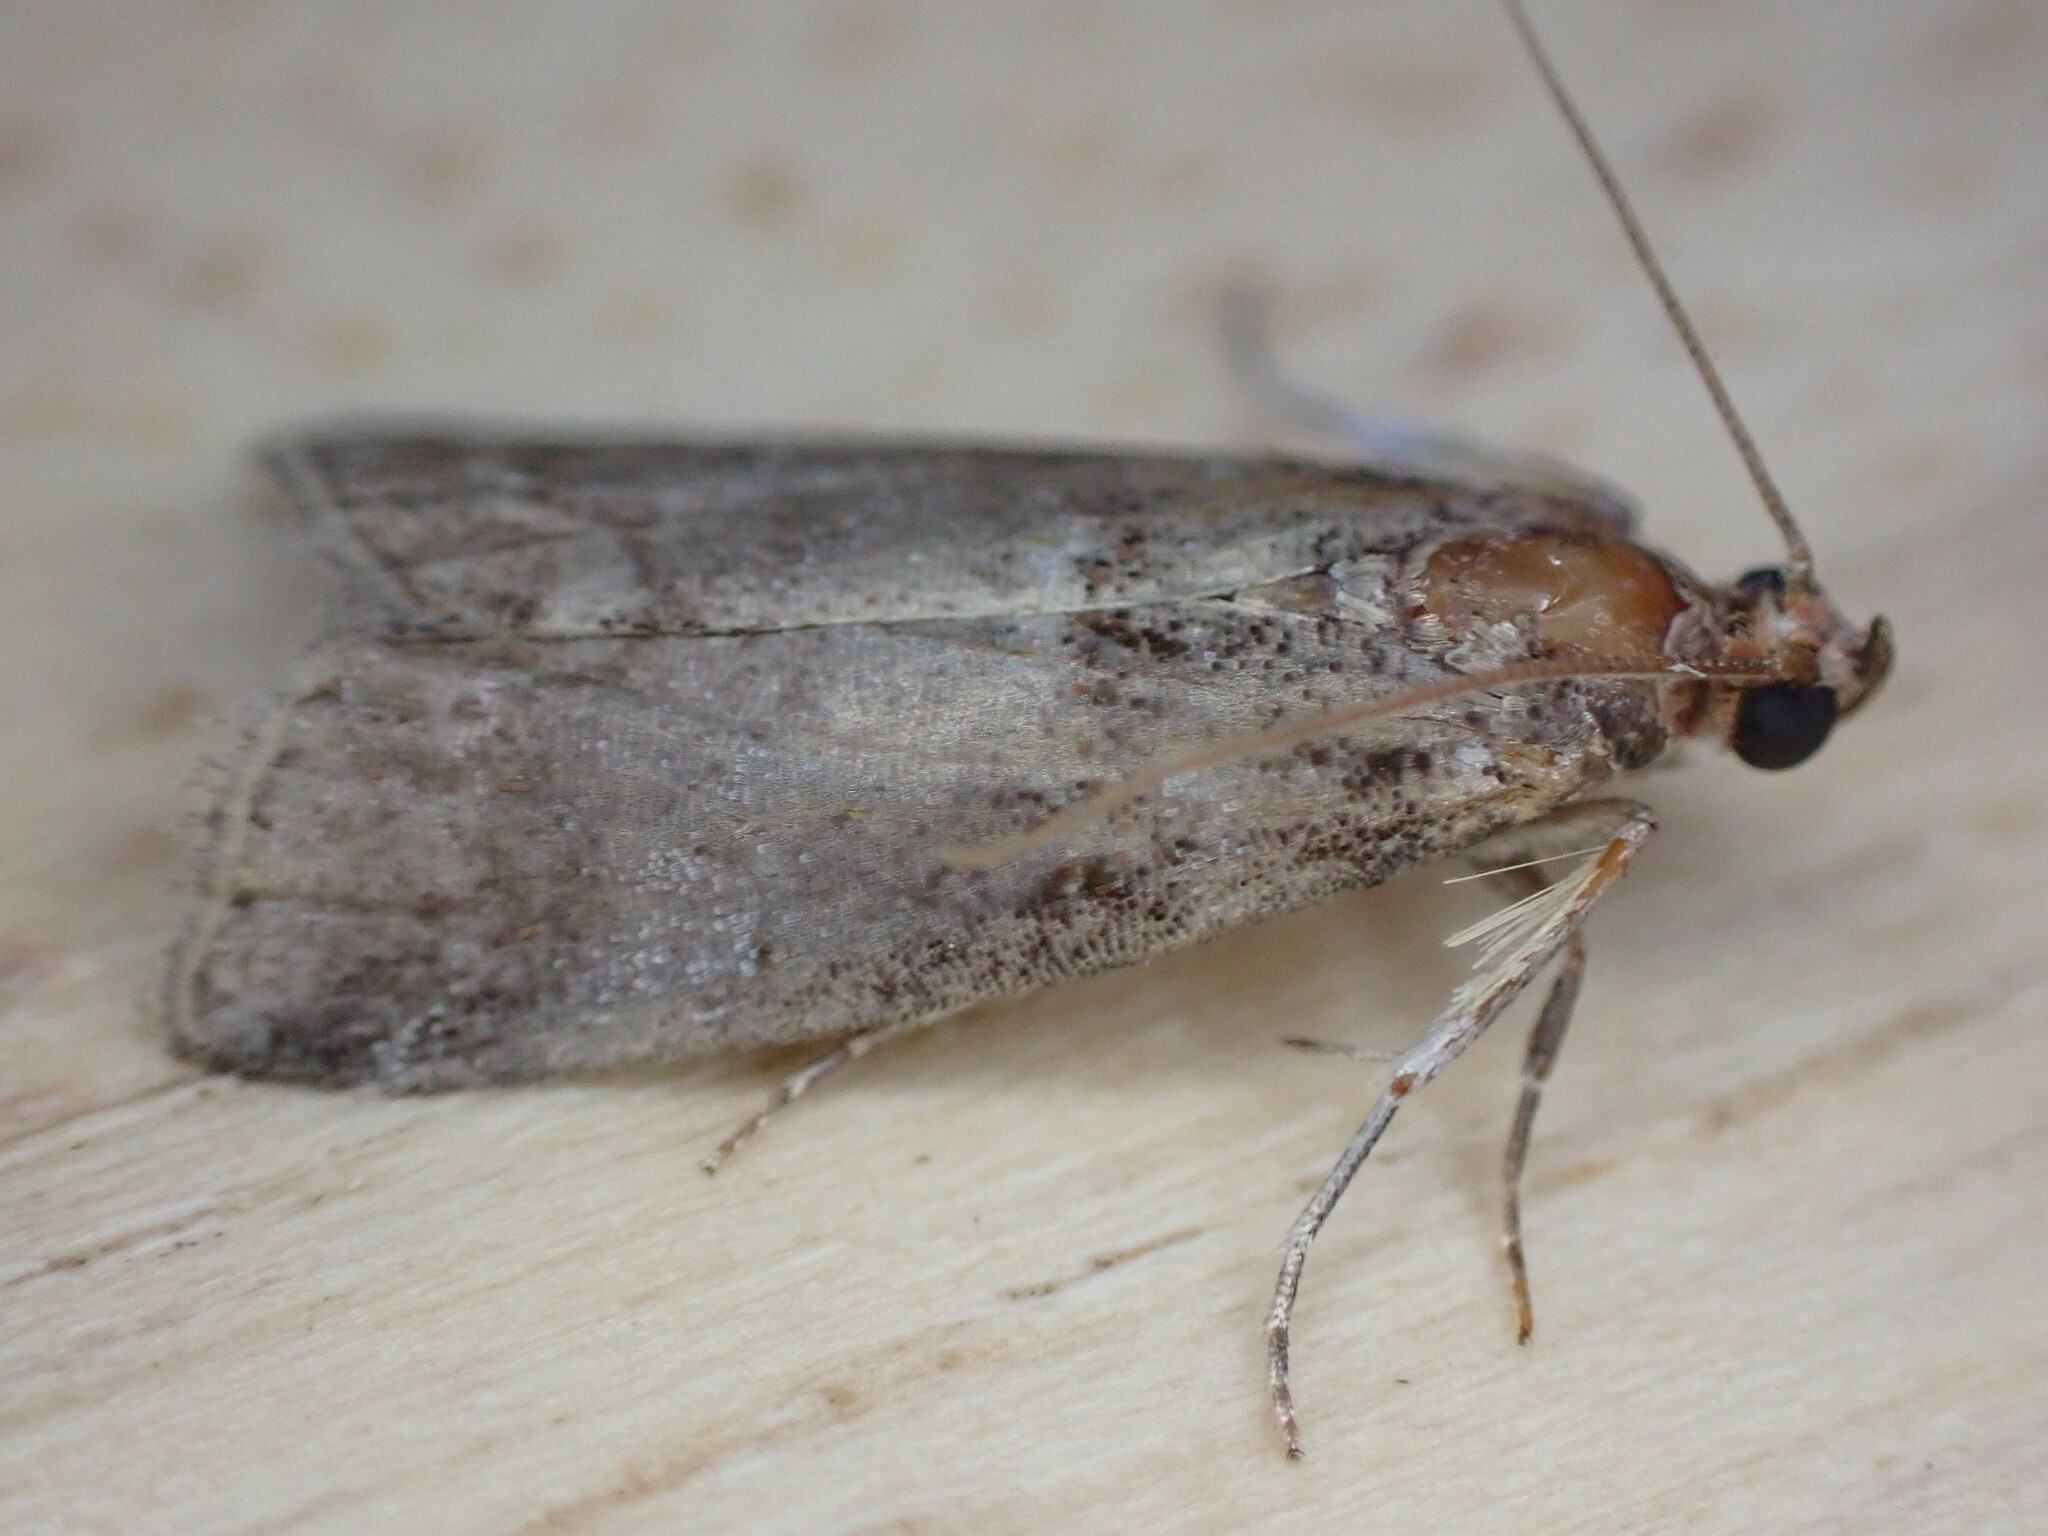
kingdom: Animalia
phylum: Arthropoda
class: Insecta
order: Lepidoptera
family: Pyralidae
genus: Acrobasis
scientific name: Acrobasis advenella
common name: Grey knot-horn
